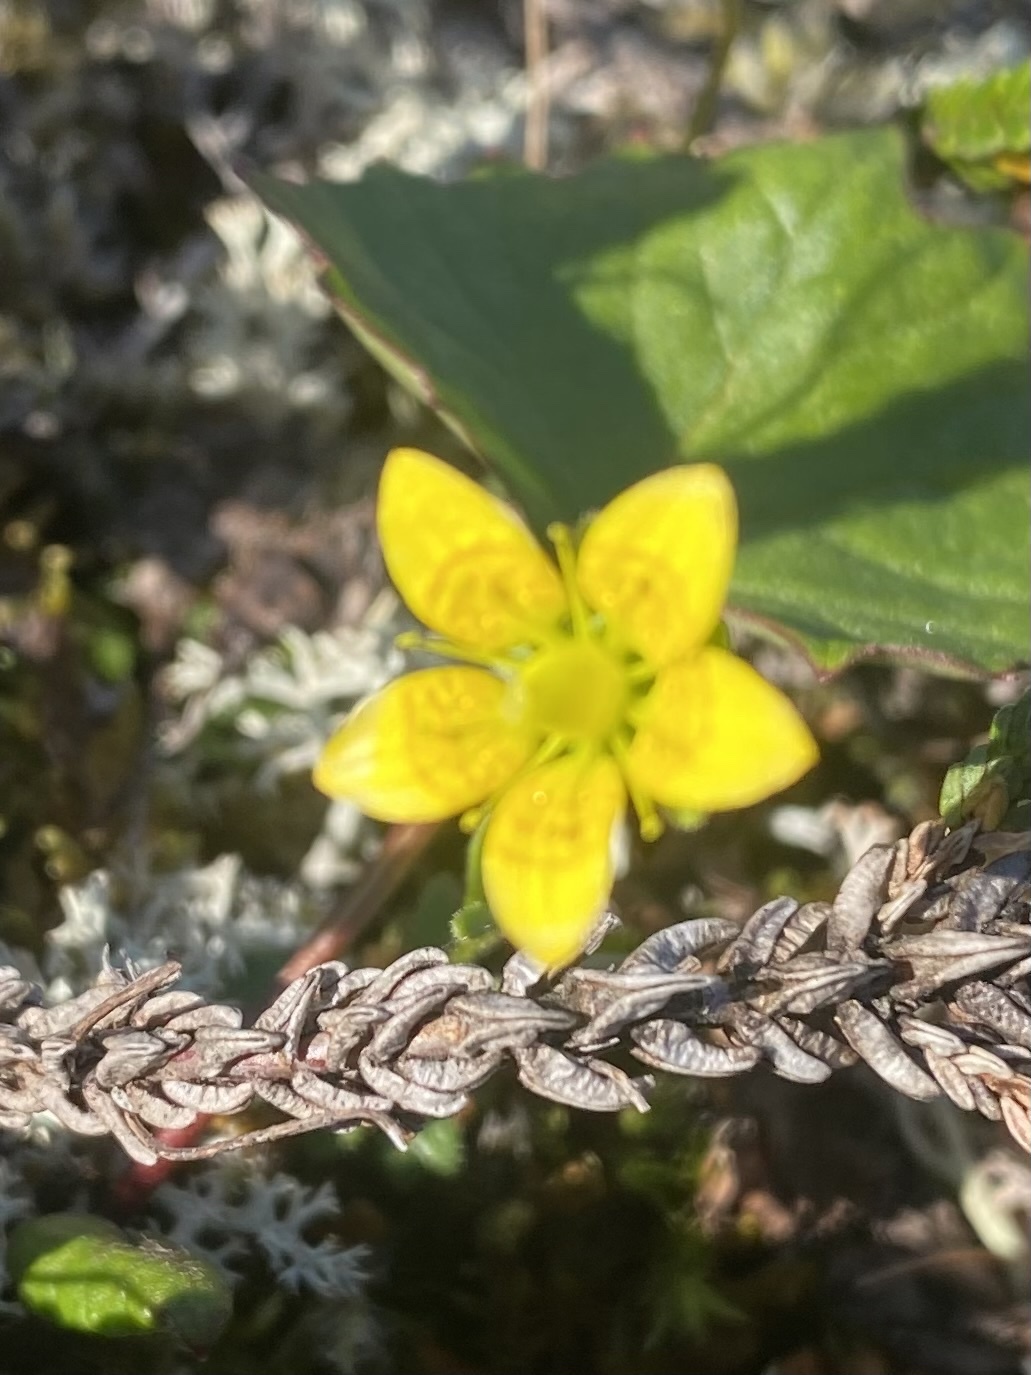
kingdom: Plantae
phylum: Tracheophyta
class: Magnoliopsida
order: Saxifragales
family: Saxifragaceae
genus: Saxifraga
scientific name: Saxifraga serpyllifolia
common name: Thyme-leaved saxifrage
